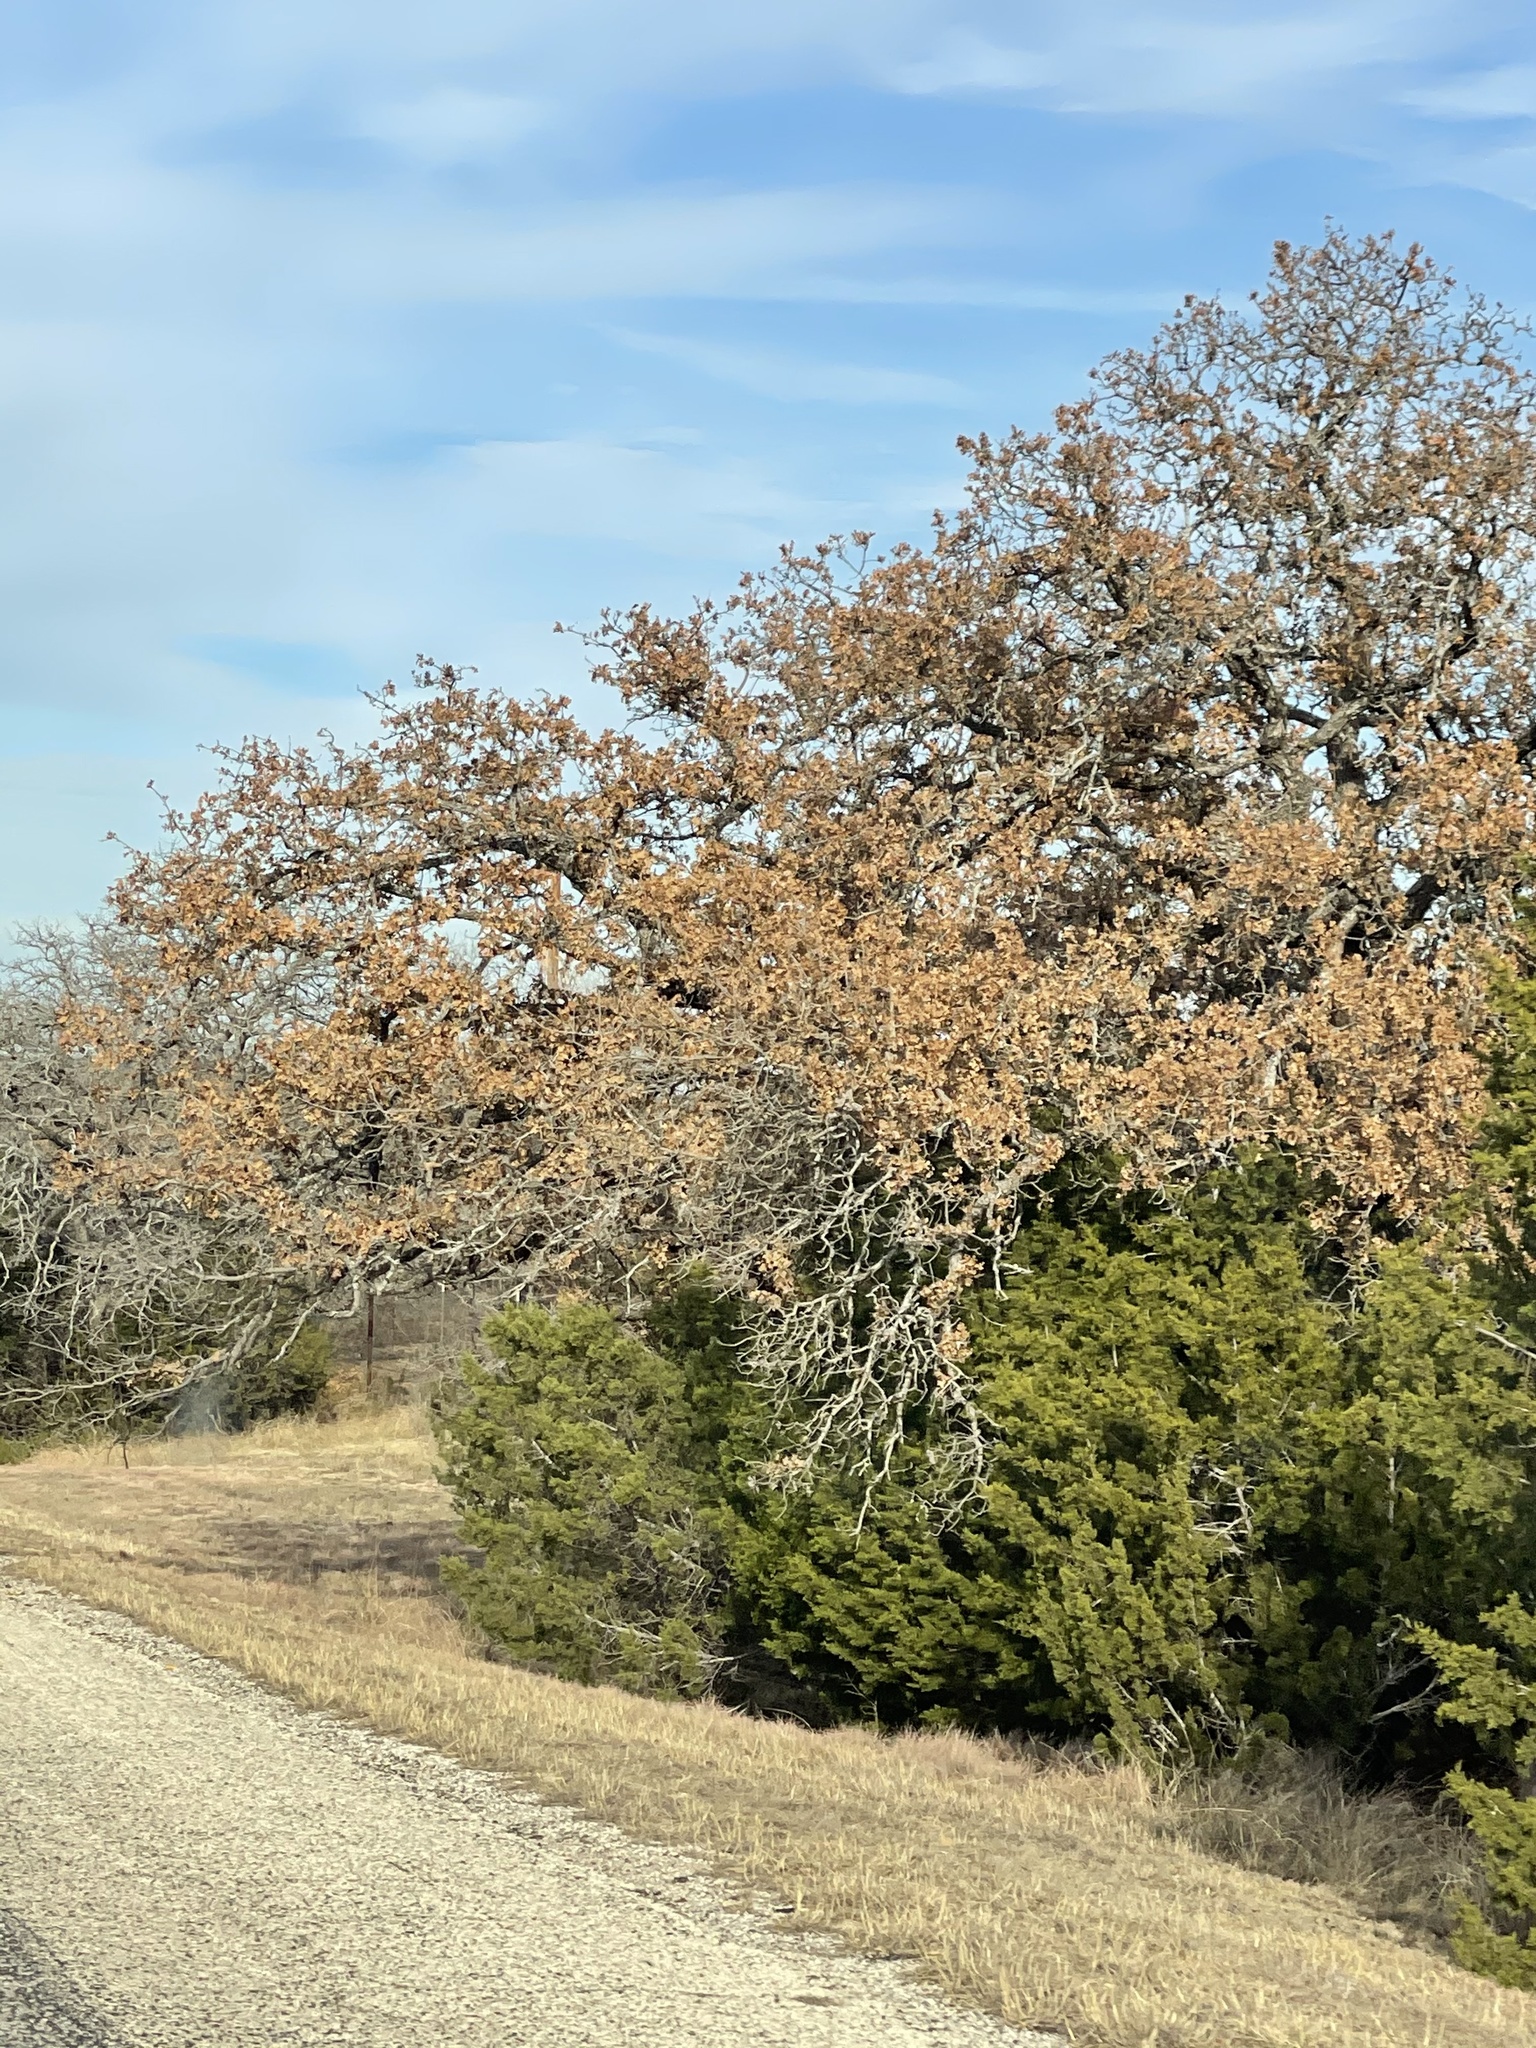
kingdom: Plantae
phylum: Tracheophyta
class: Magnoliopsida
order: Fagales
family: Fagaceae
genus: Quercus
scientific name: Quercus marilandica
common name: Blackjack oak
